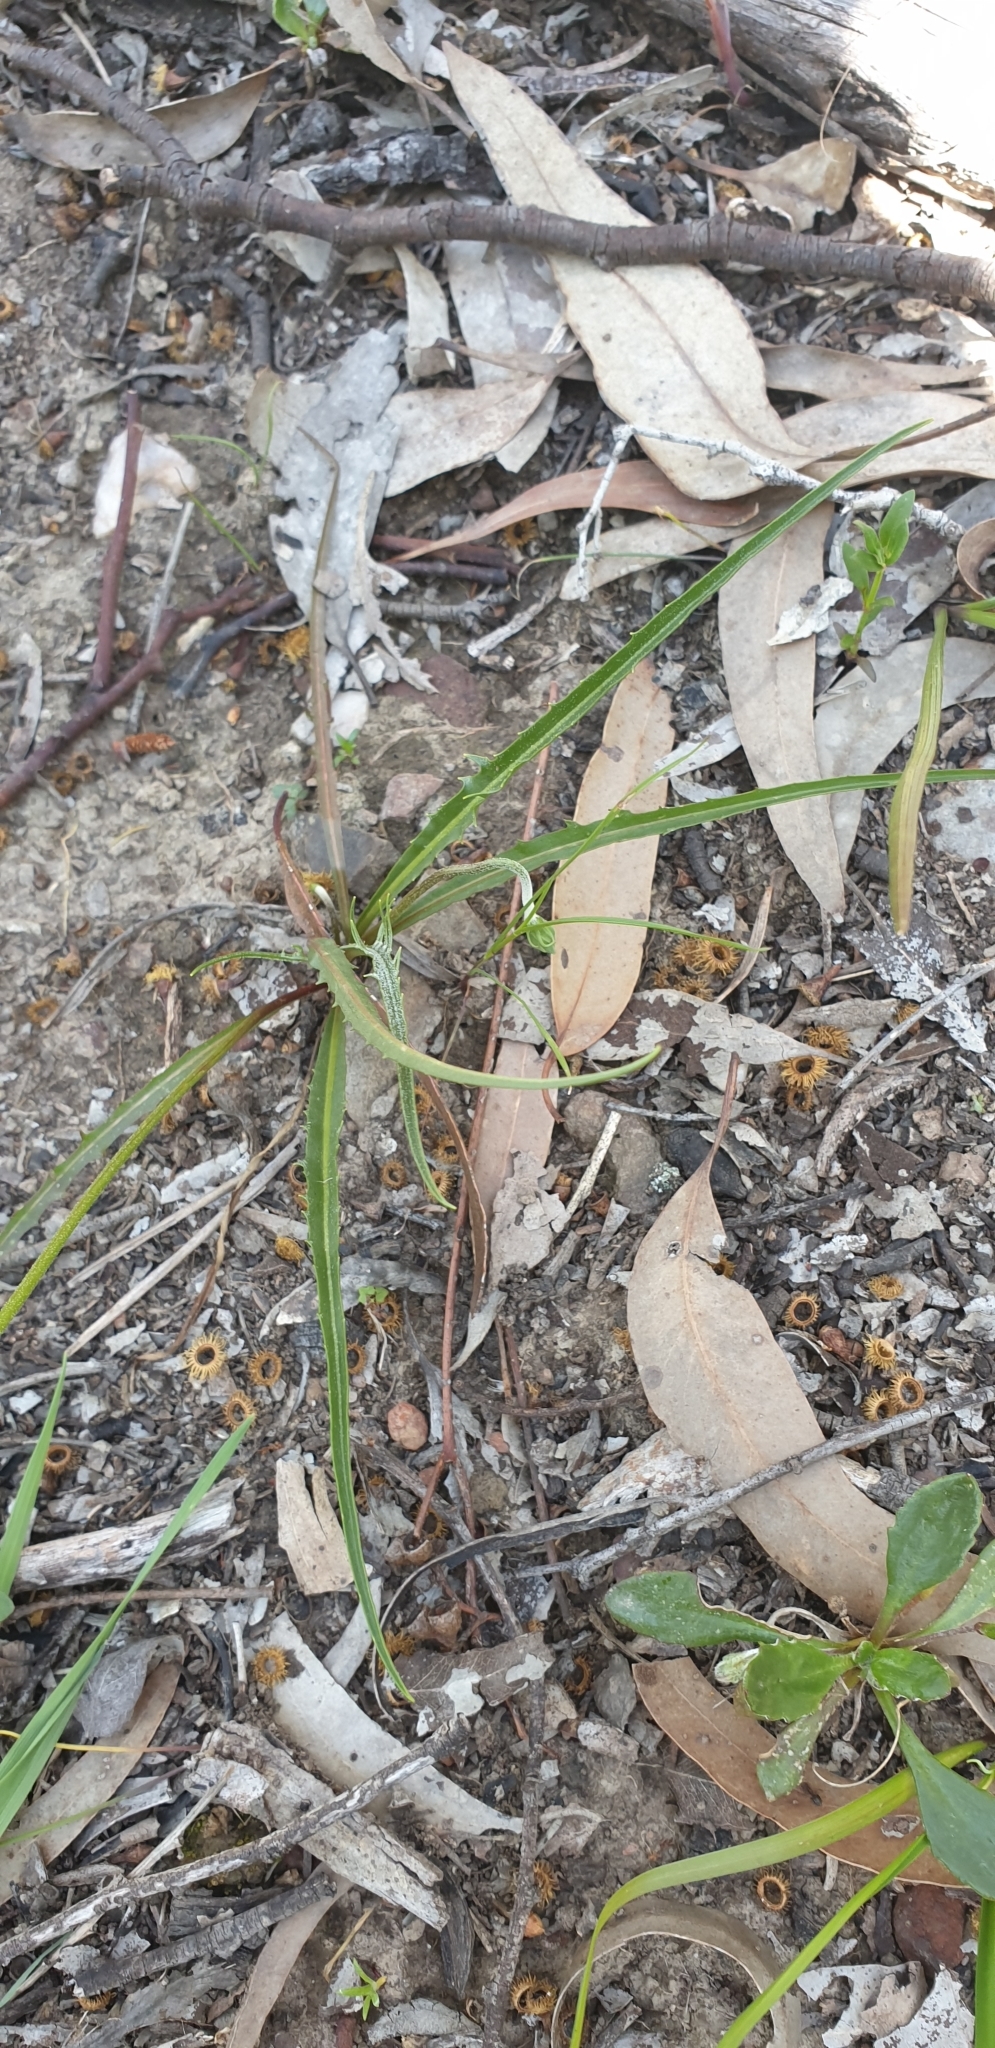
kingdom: Plantae
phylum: Tracheophyta
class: Magnoliopsida
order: Asterales
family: Asteraceae
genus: Microseris
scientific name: Microseris lanceolata
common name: Yam daisy
